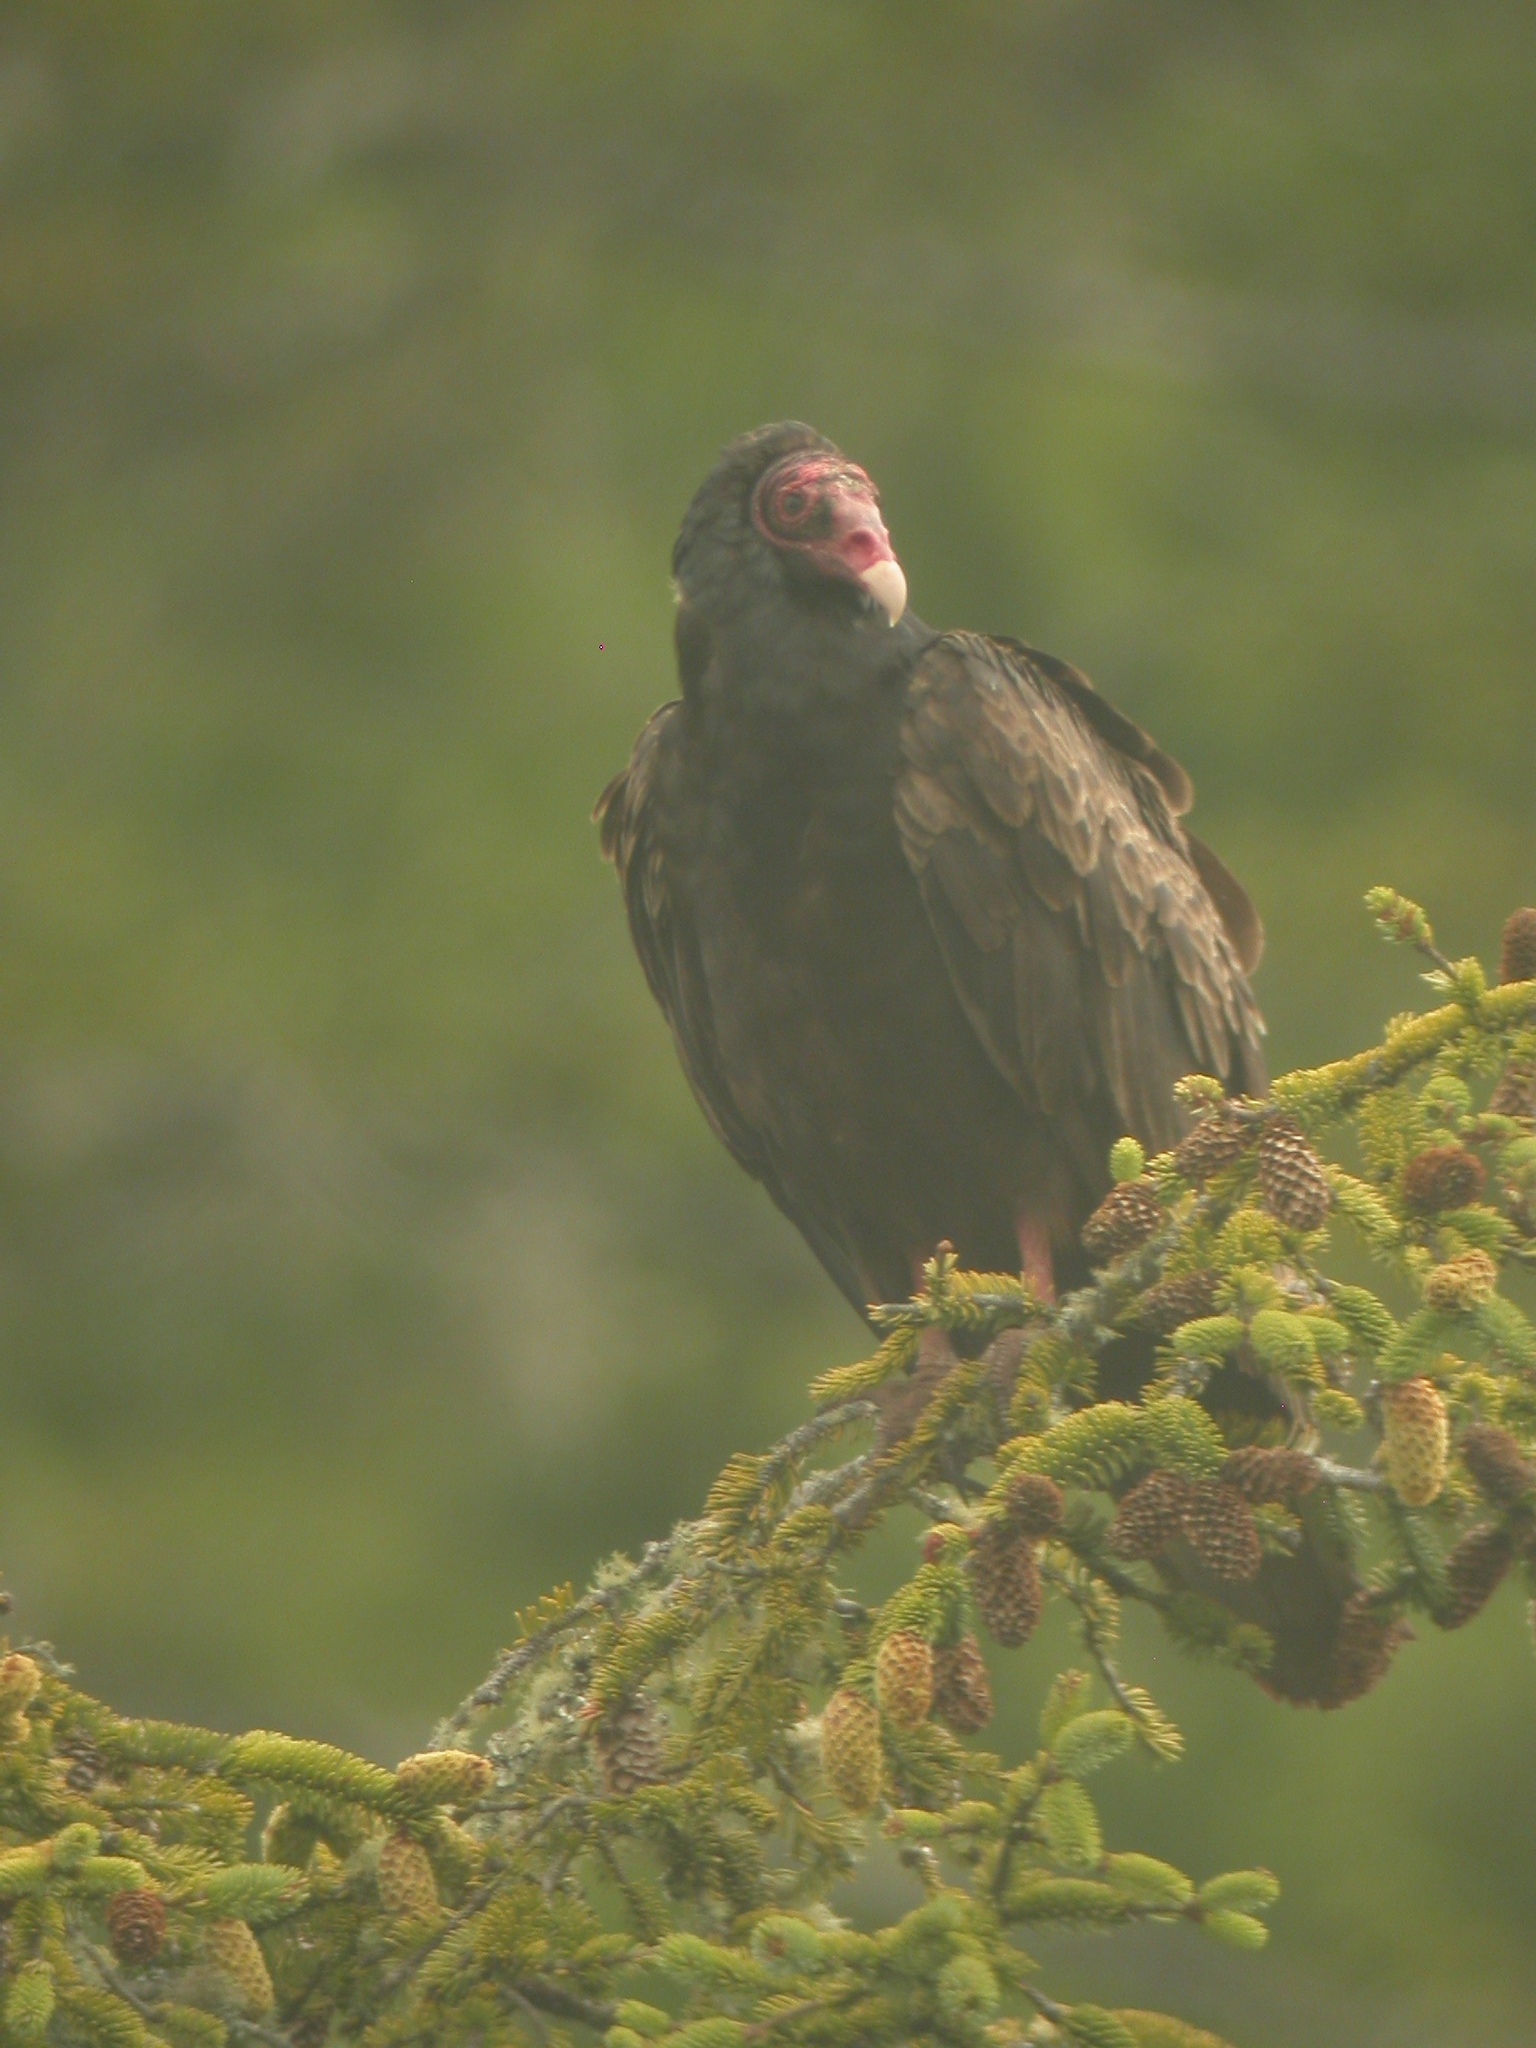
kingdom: Animalia
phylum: Chordata
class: Aves
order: Accipitriformes
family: Cathartidae
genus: Cathartes
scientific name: Cathartes aura
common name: Turkey vulture
